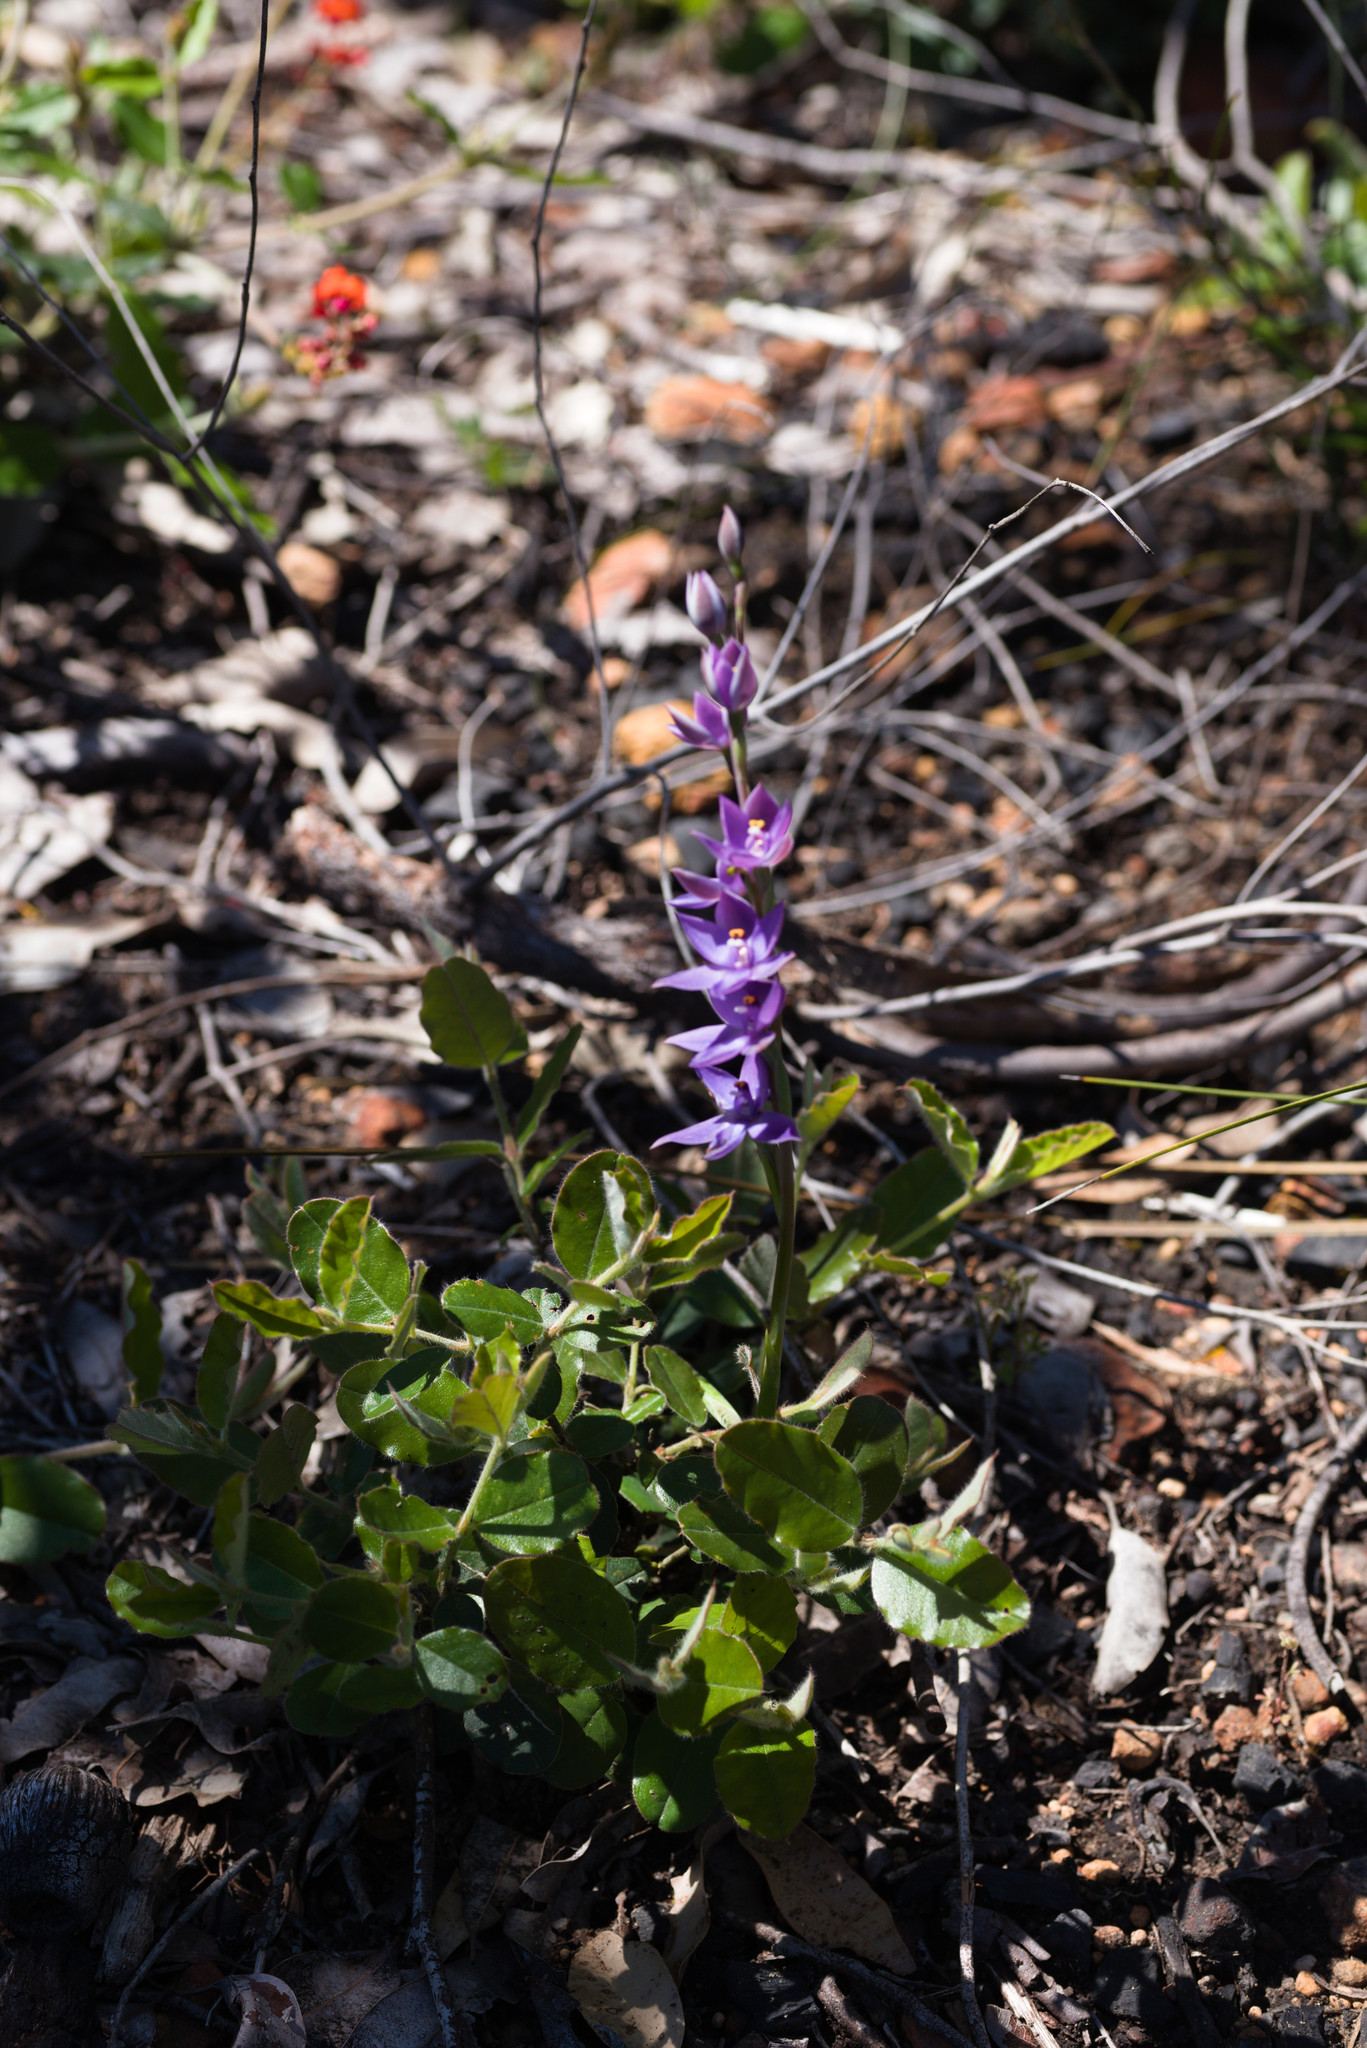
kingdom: Plantae
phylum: Tracheophyta
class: Liliopsida
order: Asparagales
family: Orchidaceae
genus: Thelymitra
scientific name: Thelymitra macrophylla
